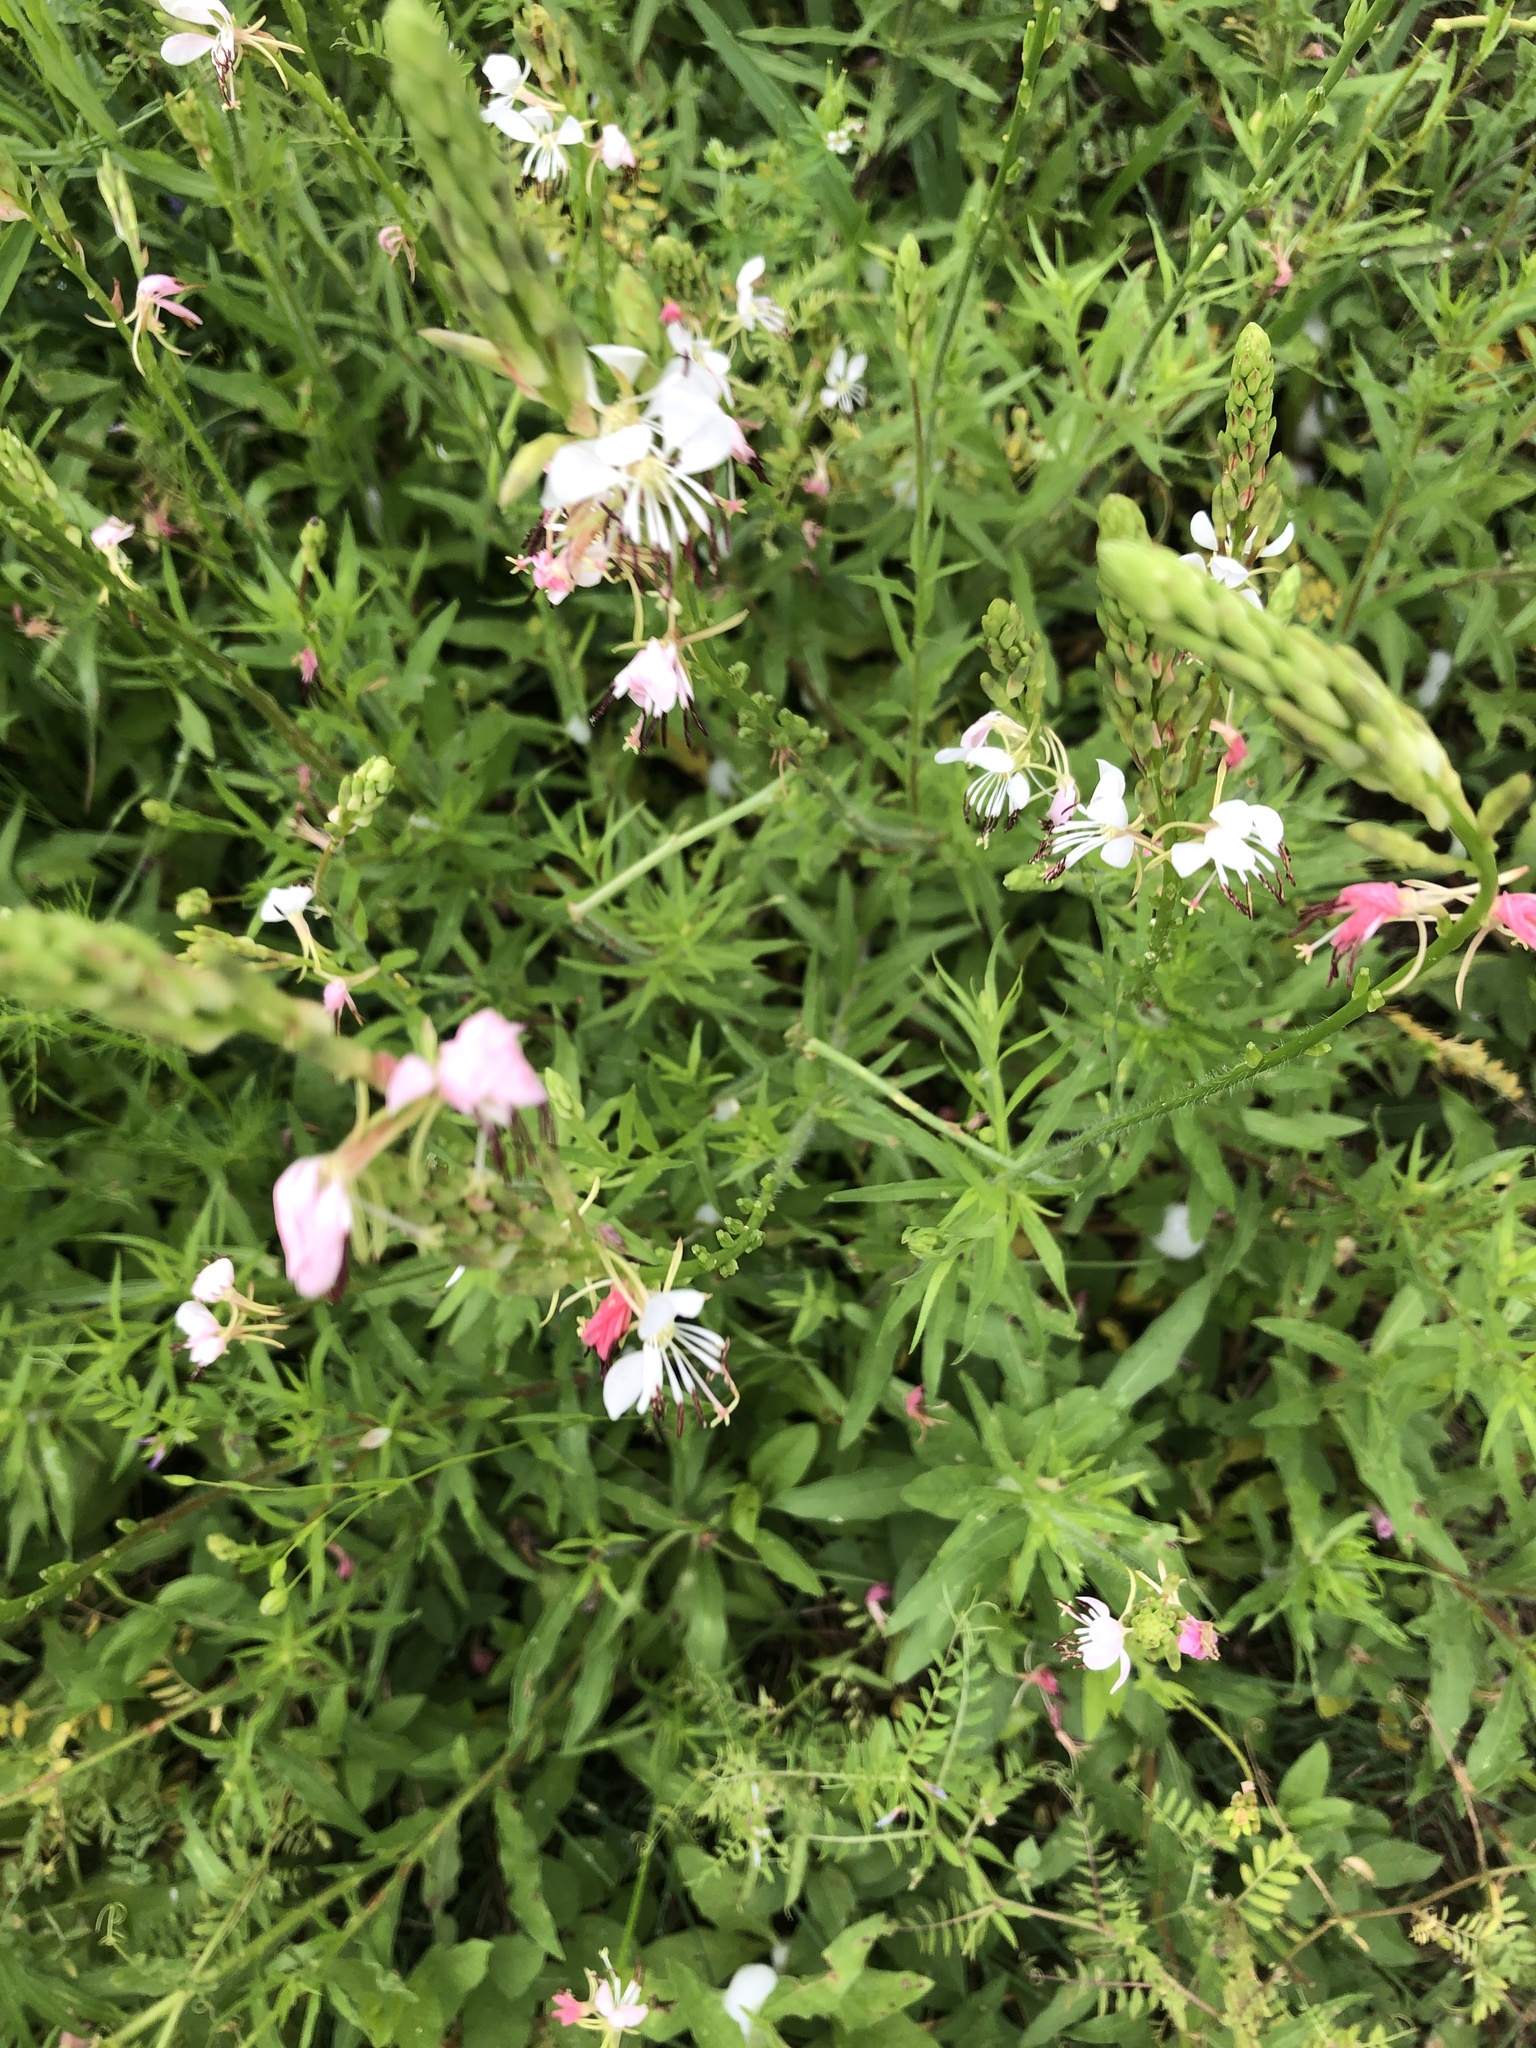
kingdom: Plantae
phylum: Tracheophyta
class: Magnoliopsida
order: Myrtales
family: Onagraceae
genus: Oenothera
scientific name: Oenothera suffulta
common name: Kisses
